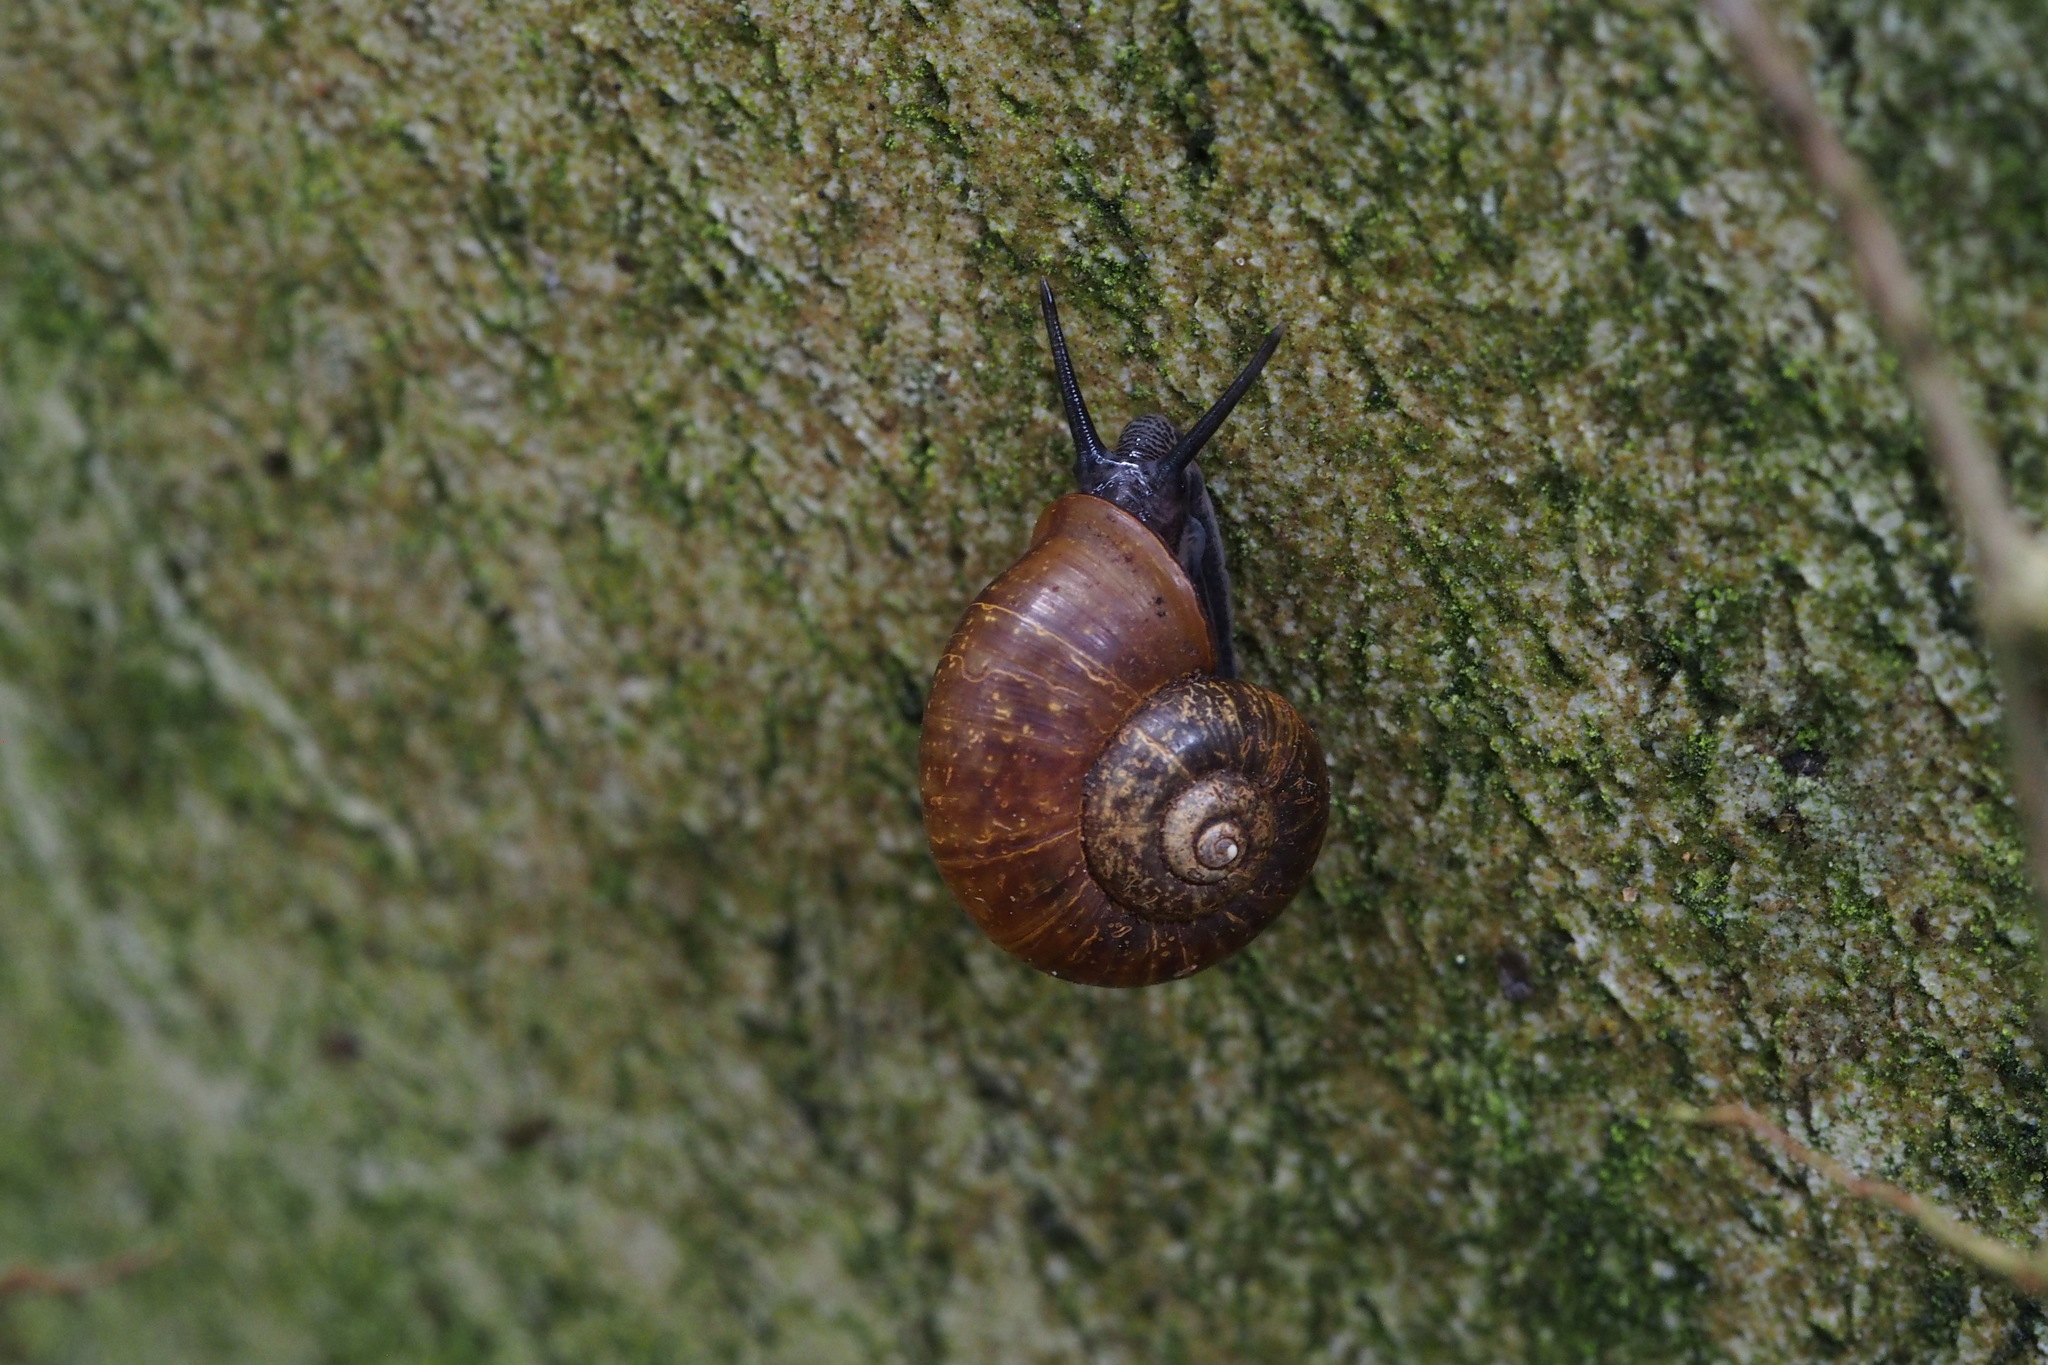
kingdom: Animalia
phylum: Mollusca
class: Gastropoda
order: Architaenioglossa
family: Cyclophoridae
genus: Cyclotus
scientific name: Cyclotus campanulatus
